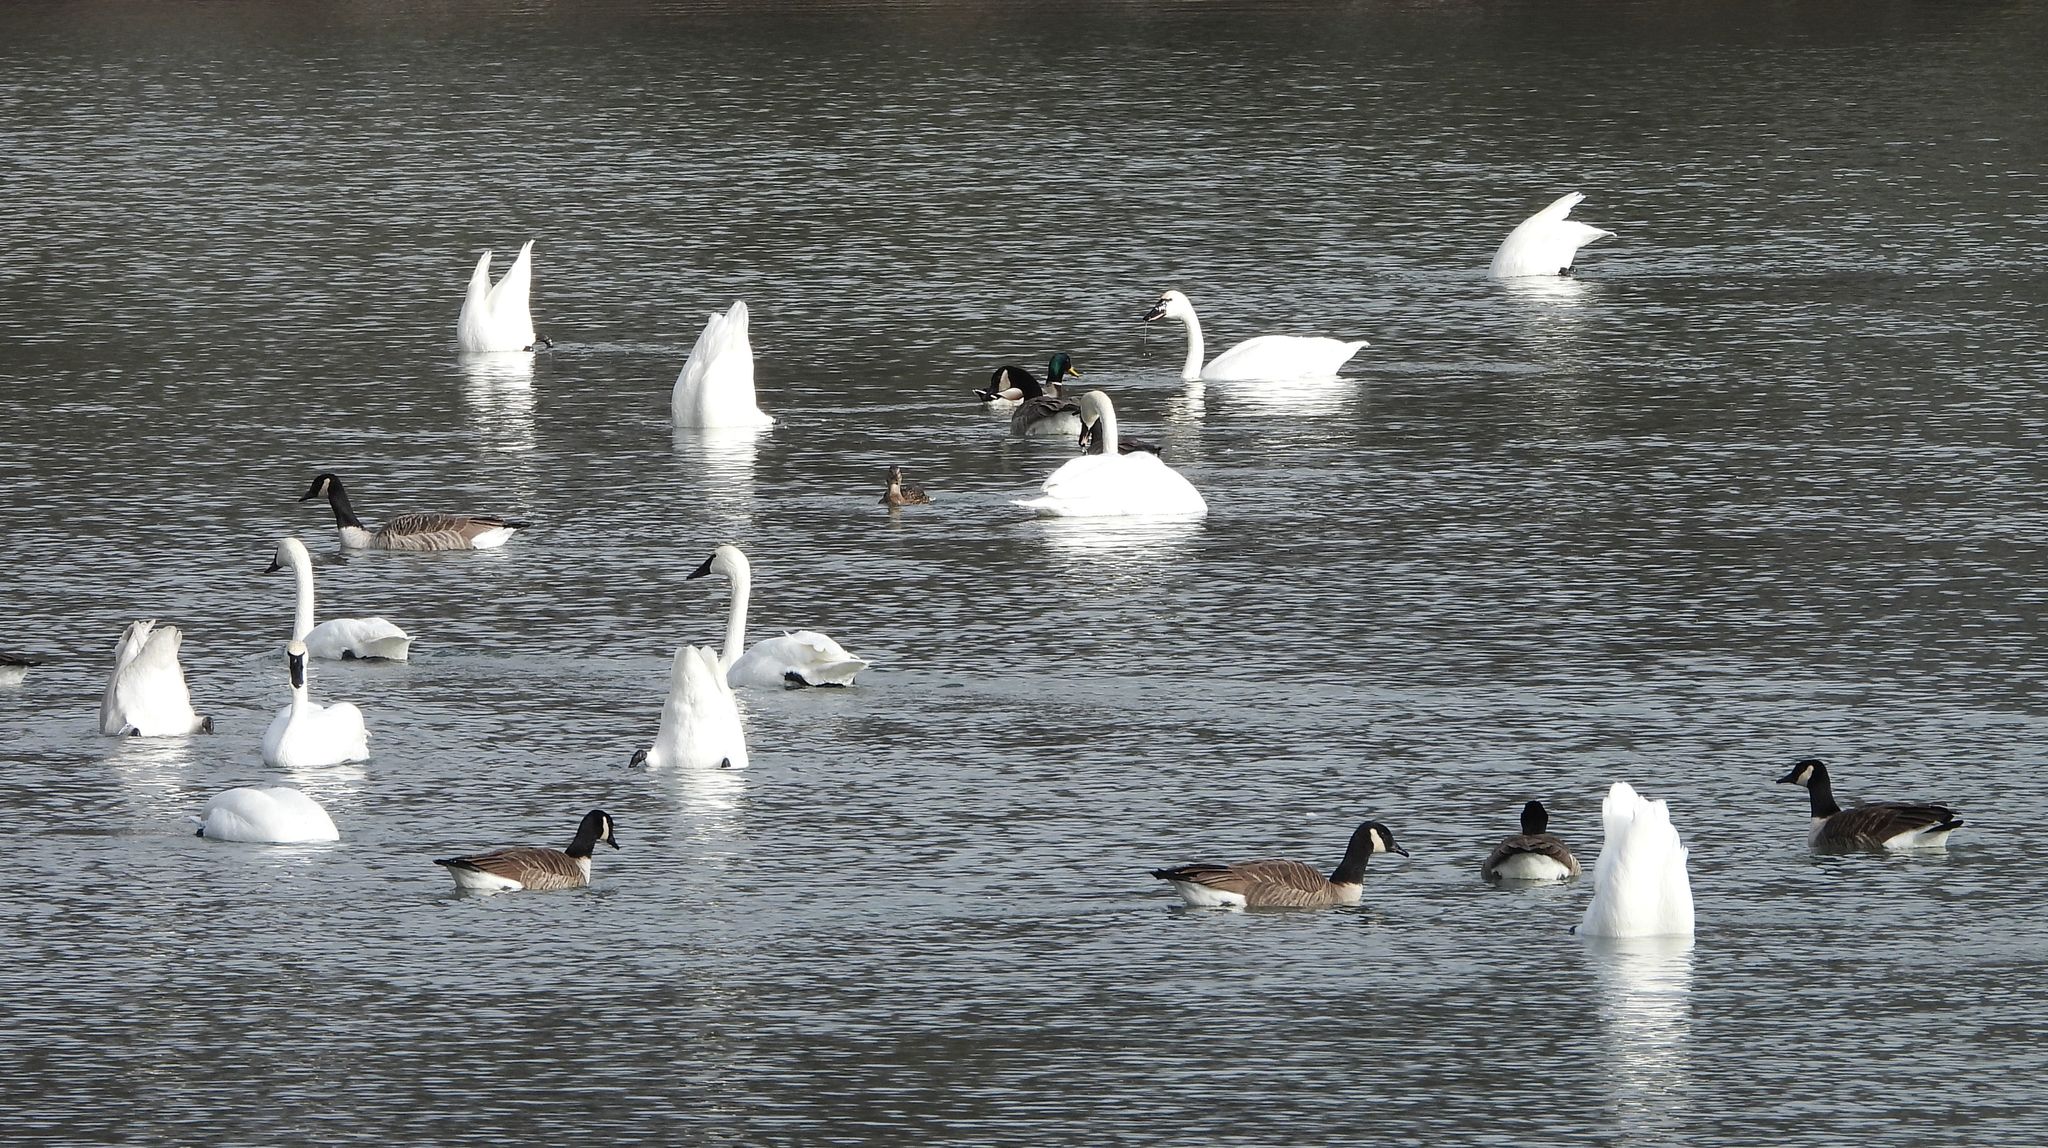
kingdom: Animalia
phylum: Chordata
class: Aves
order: Anseriformes
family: Anatidae
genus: Cygnus
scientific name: Cygnus columbianus
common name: Tundra swan
